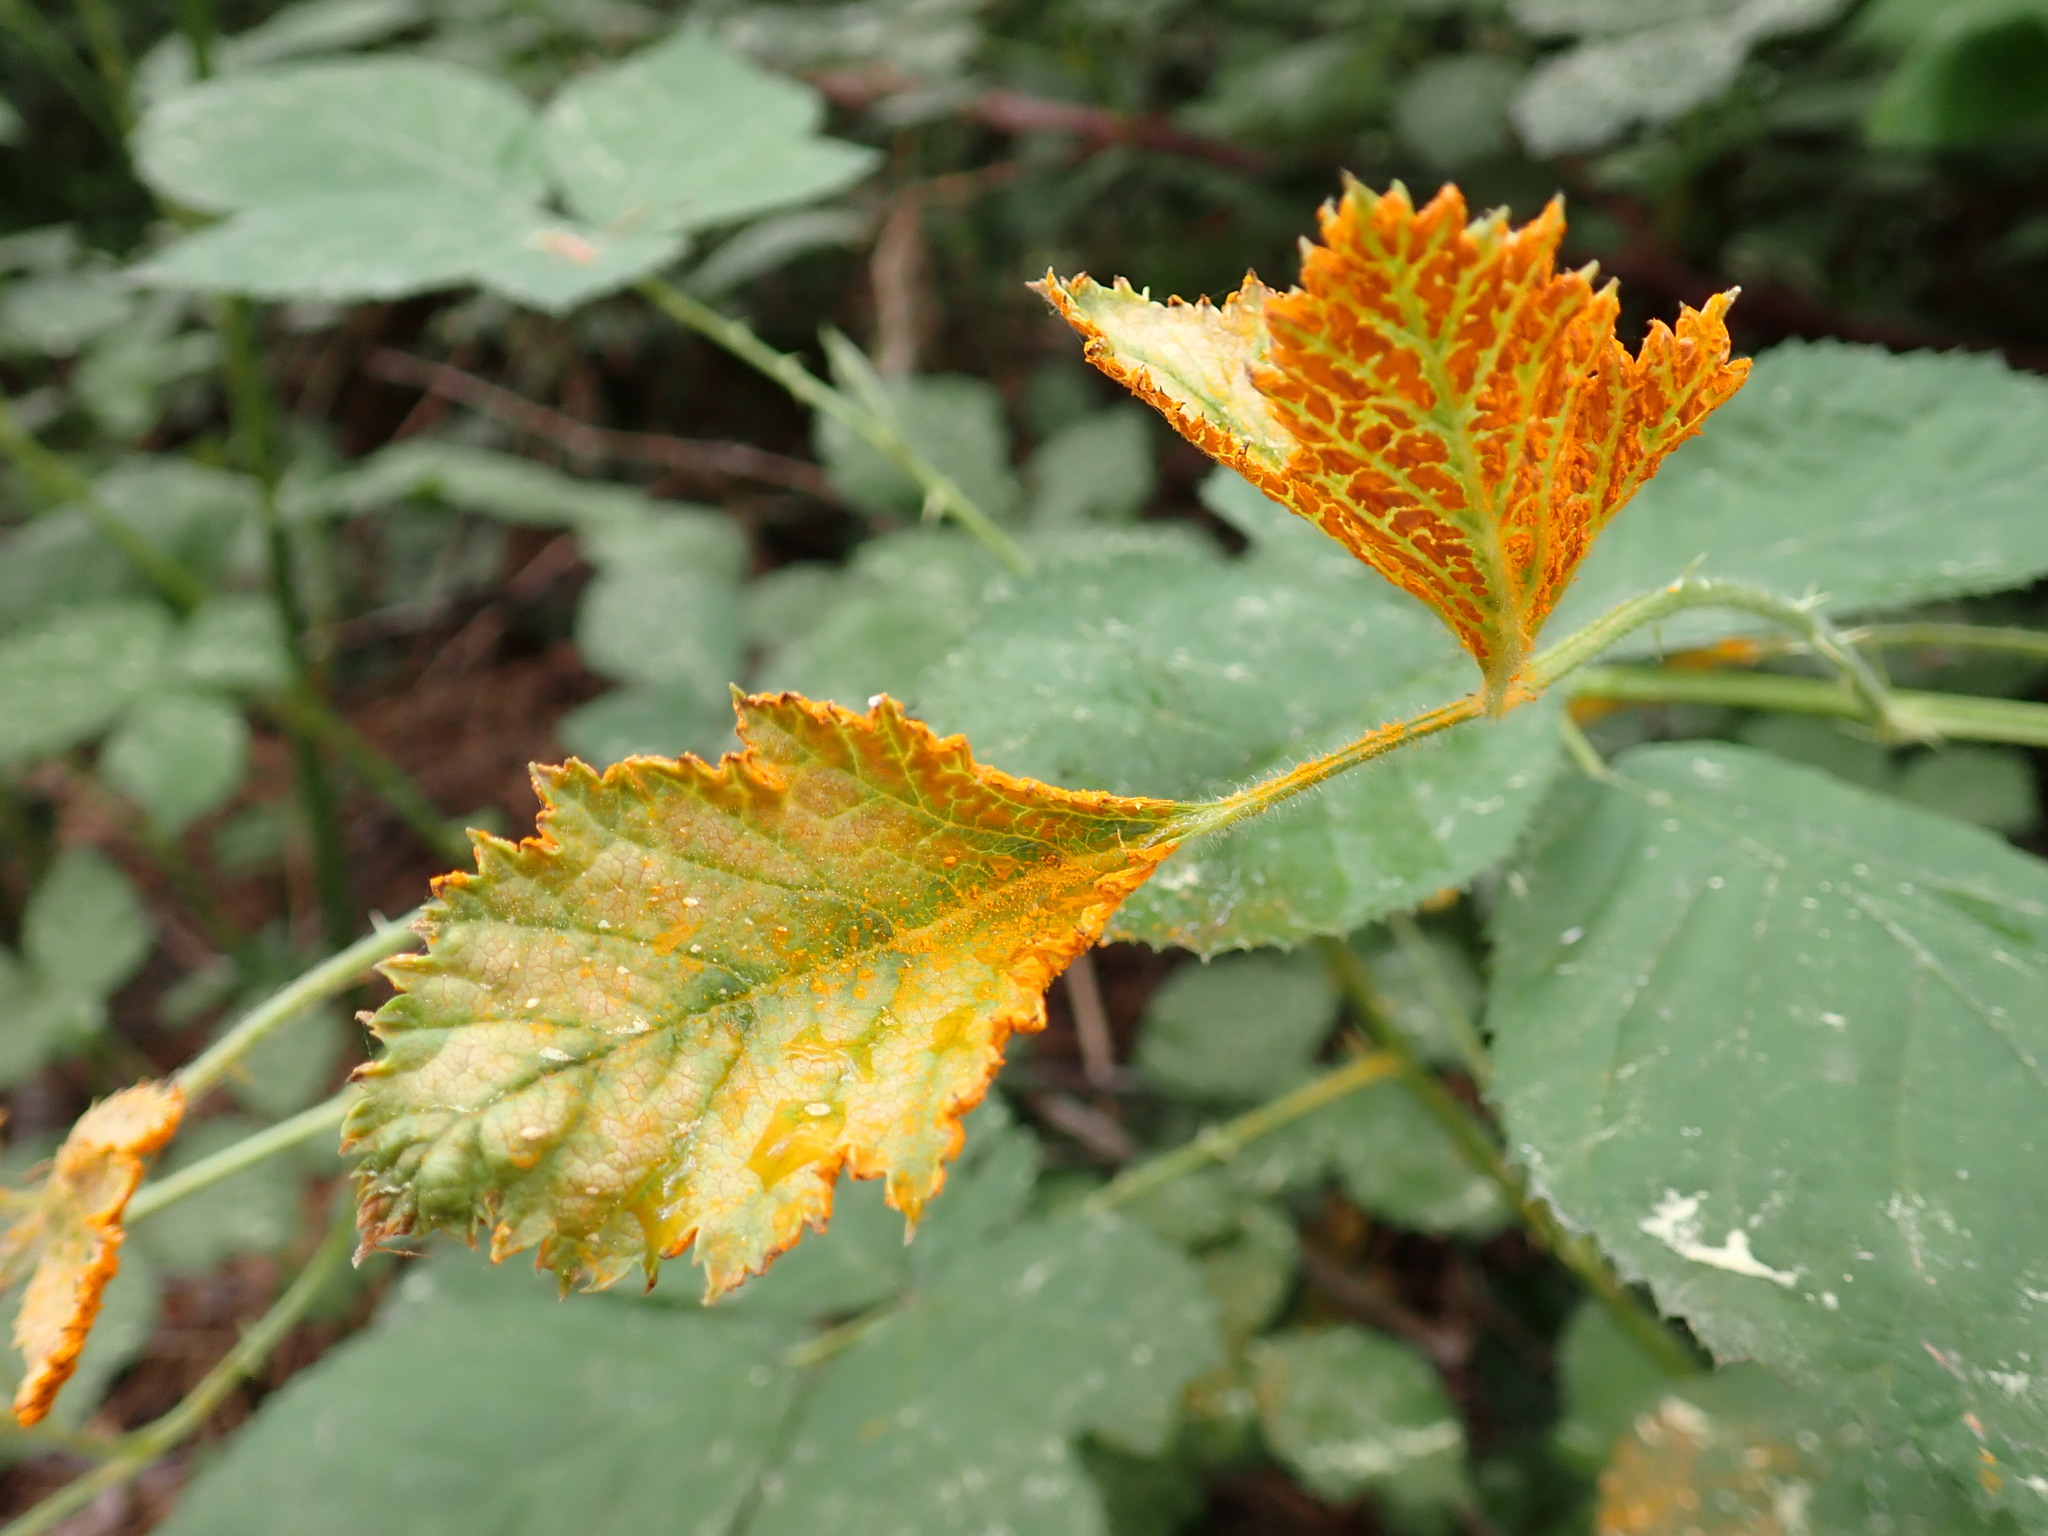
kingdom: Fungi
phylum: Basidiomycota
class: Pucciniomycetes
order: Pucciniales
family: Phragmidiaceae
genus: Arthuriomyces
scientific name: Arthuriomyces peckianus
